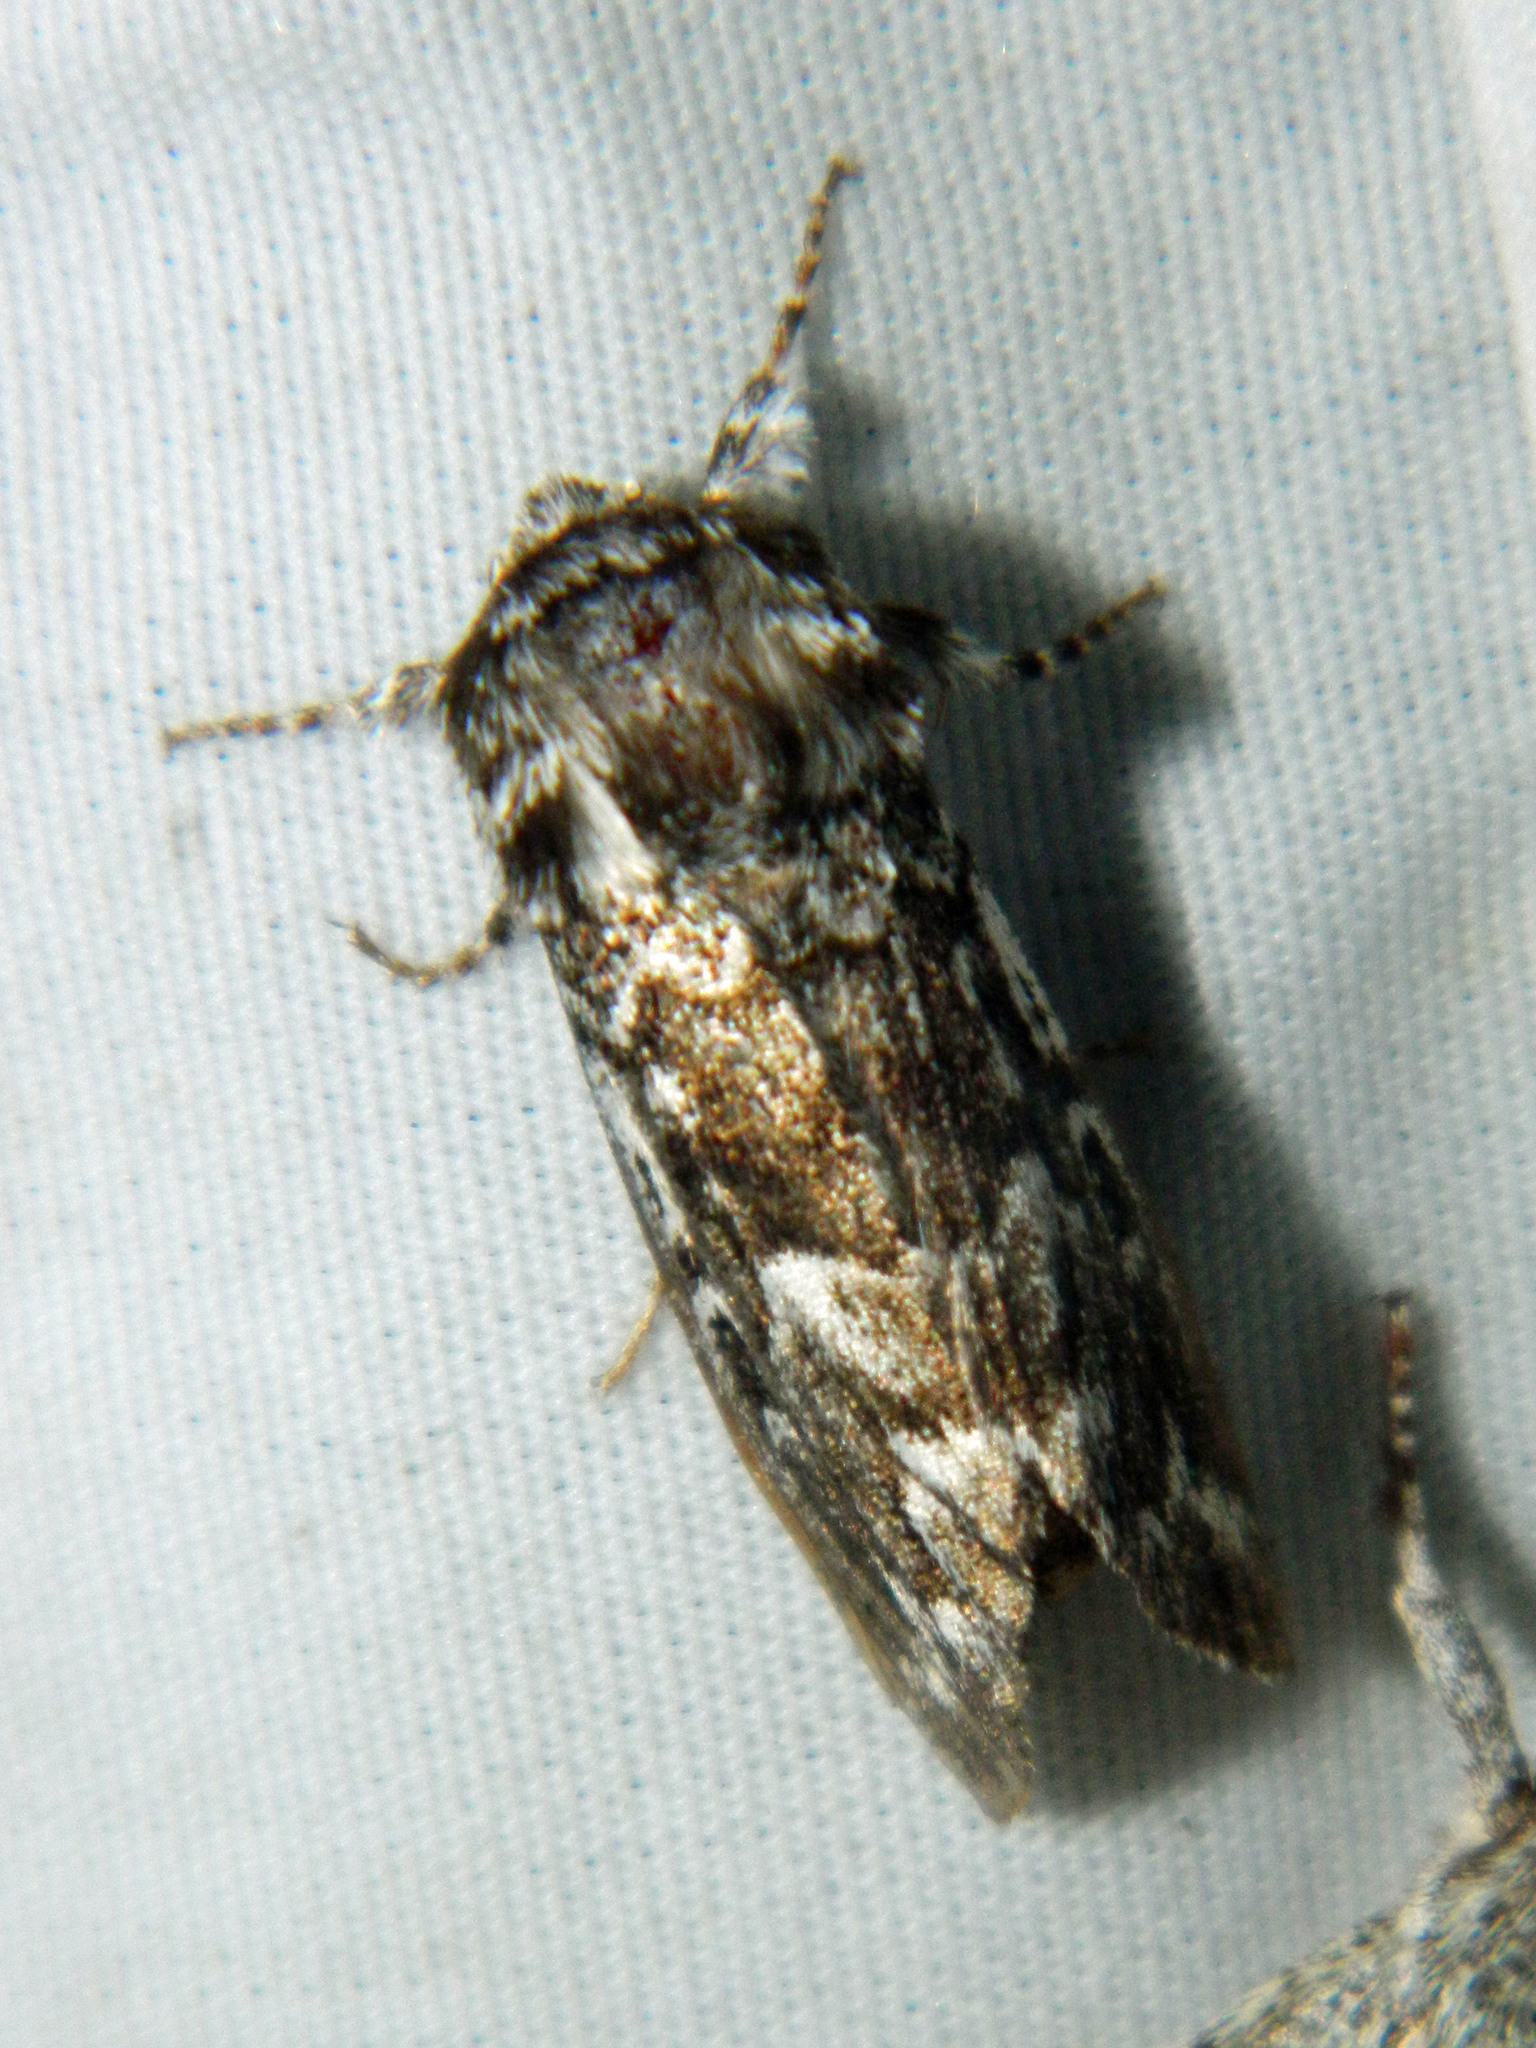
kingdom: Animalia
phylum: Arthropoda
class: Insecta
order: Lepidoptera
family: Noctuidae
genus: Panthea
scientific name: Panthea acronyctoides
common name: Black zigzag moth
